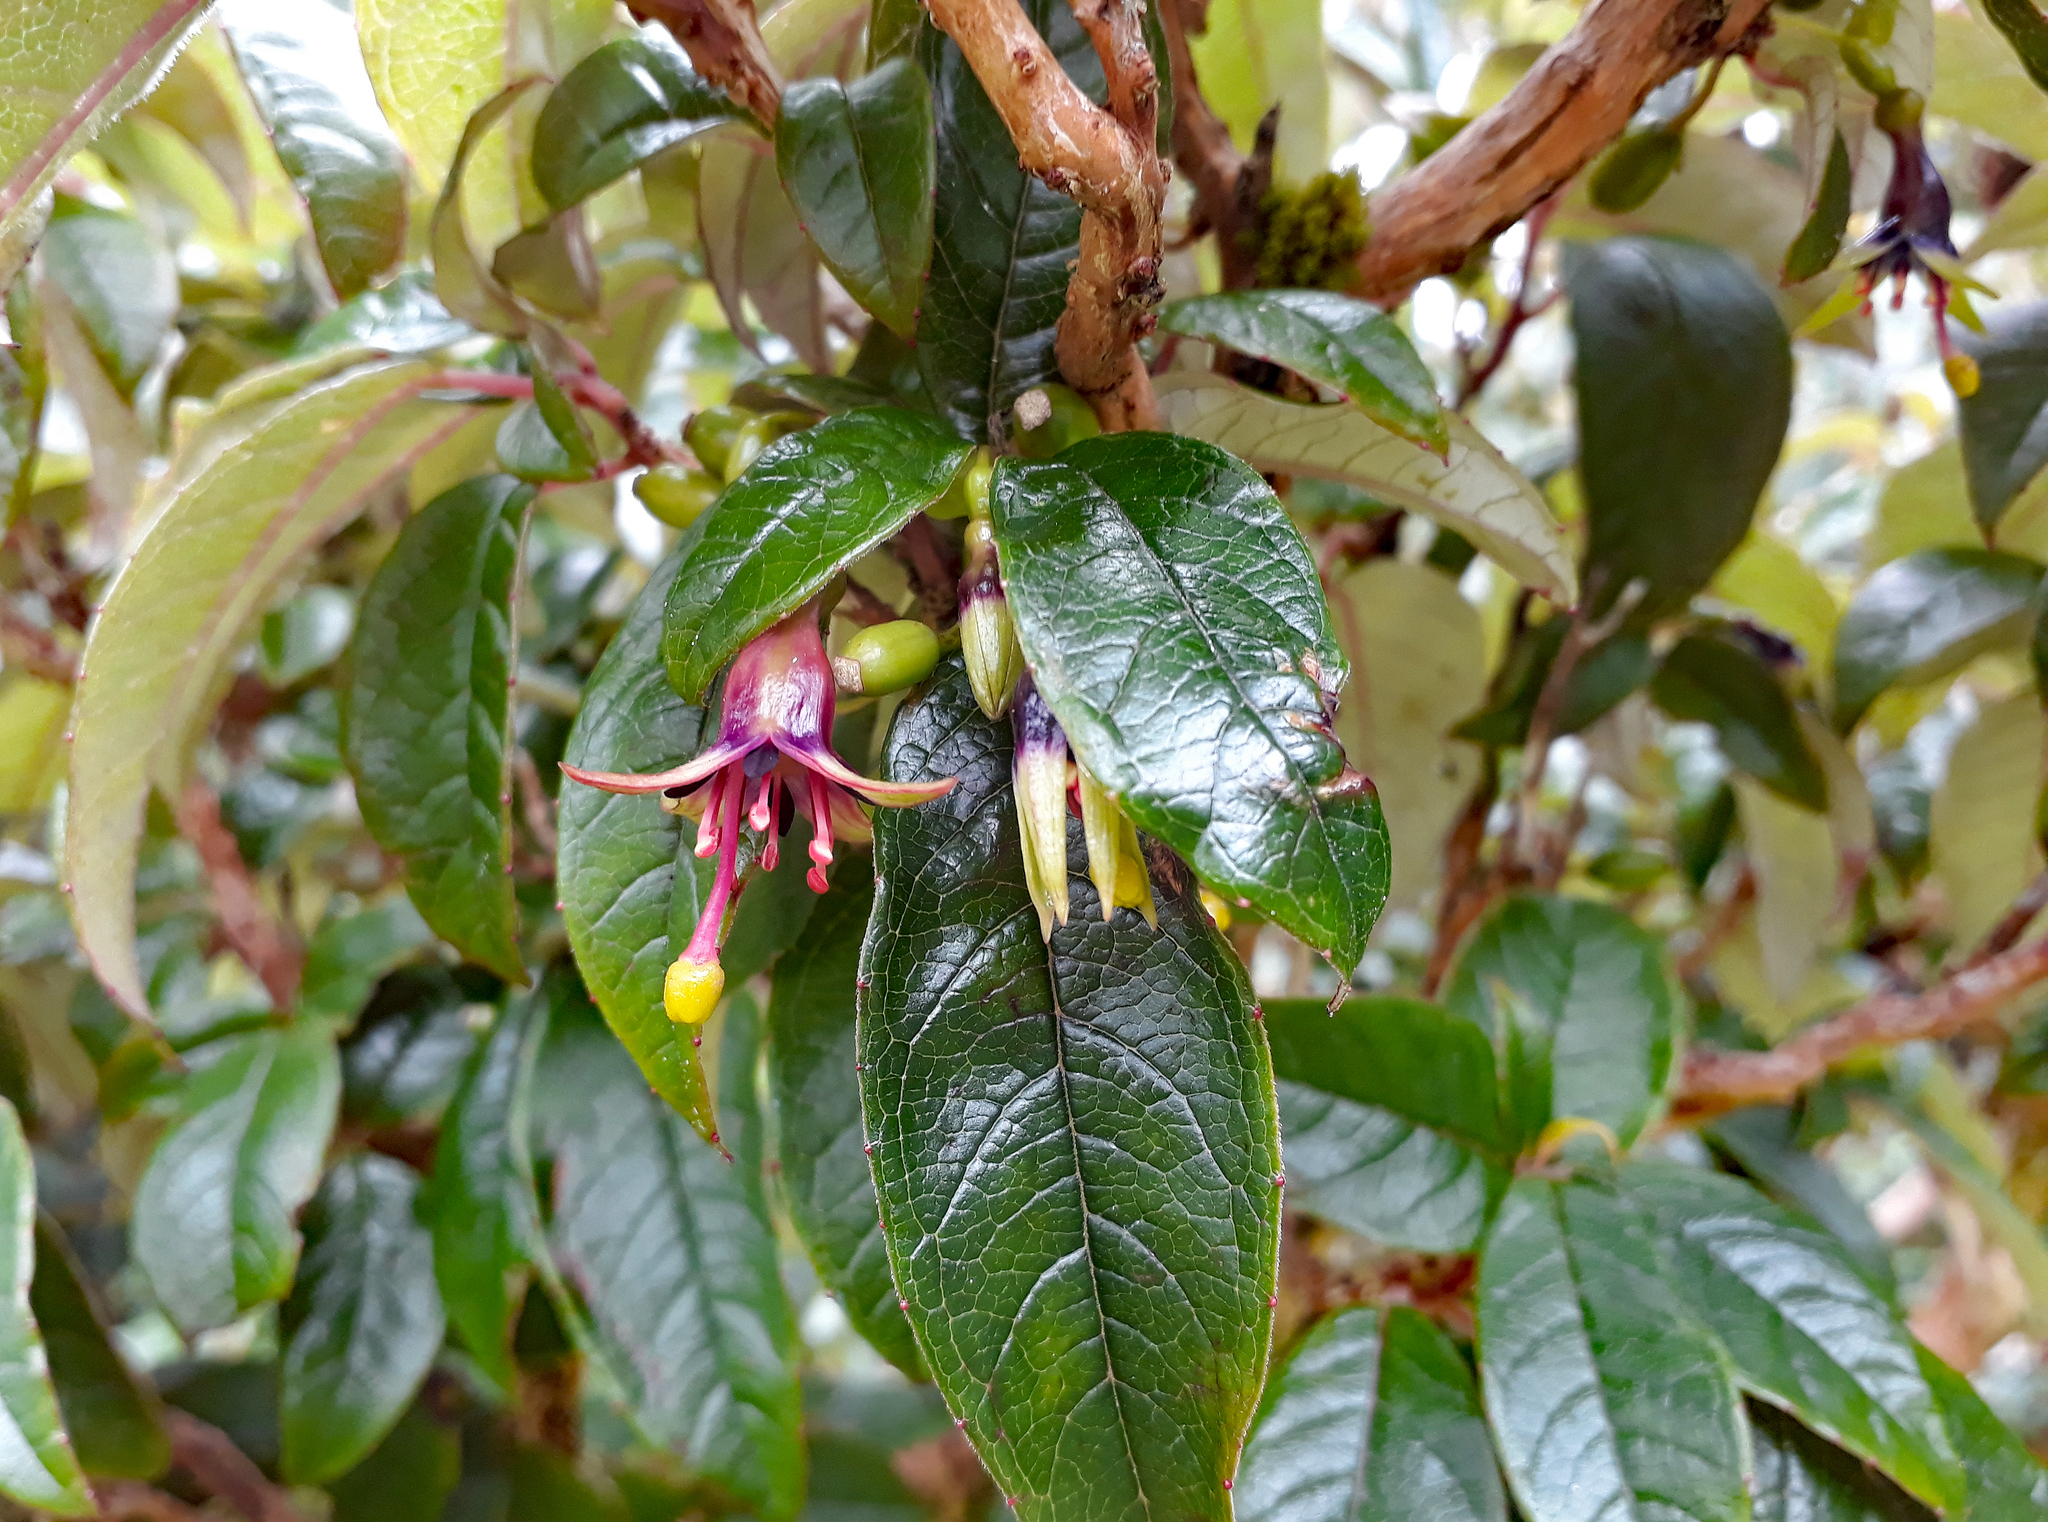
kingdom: Plantae
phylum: Tracheophyta
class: Magnoliopsida
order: Myrtales
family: Onagraceae
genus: Fuchsia
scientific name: Fuchsia excorticata
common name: Tree fuchsia
